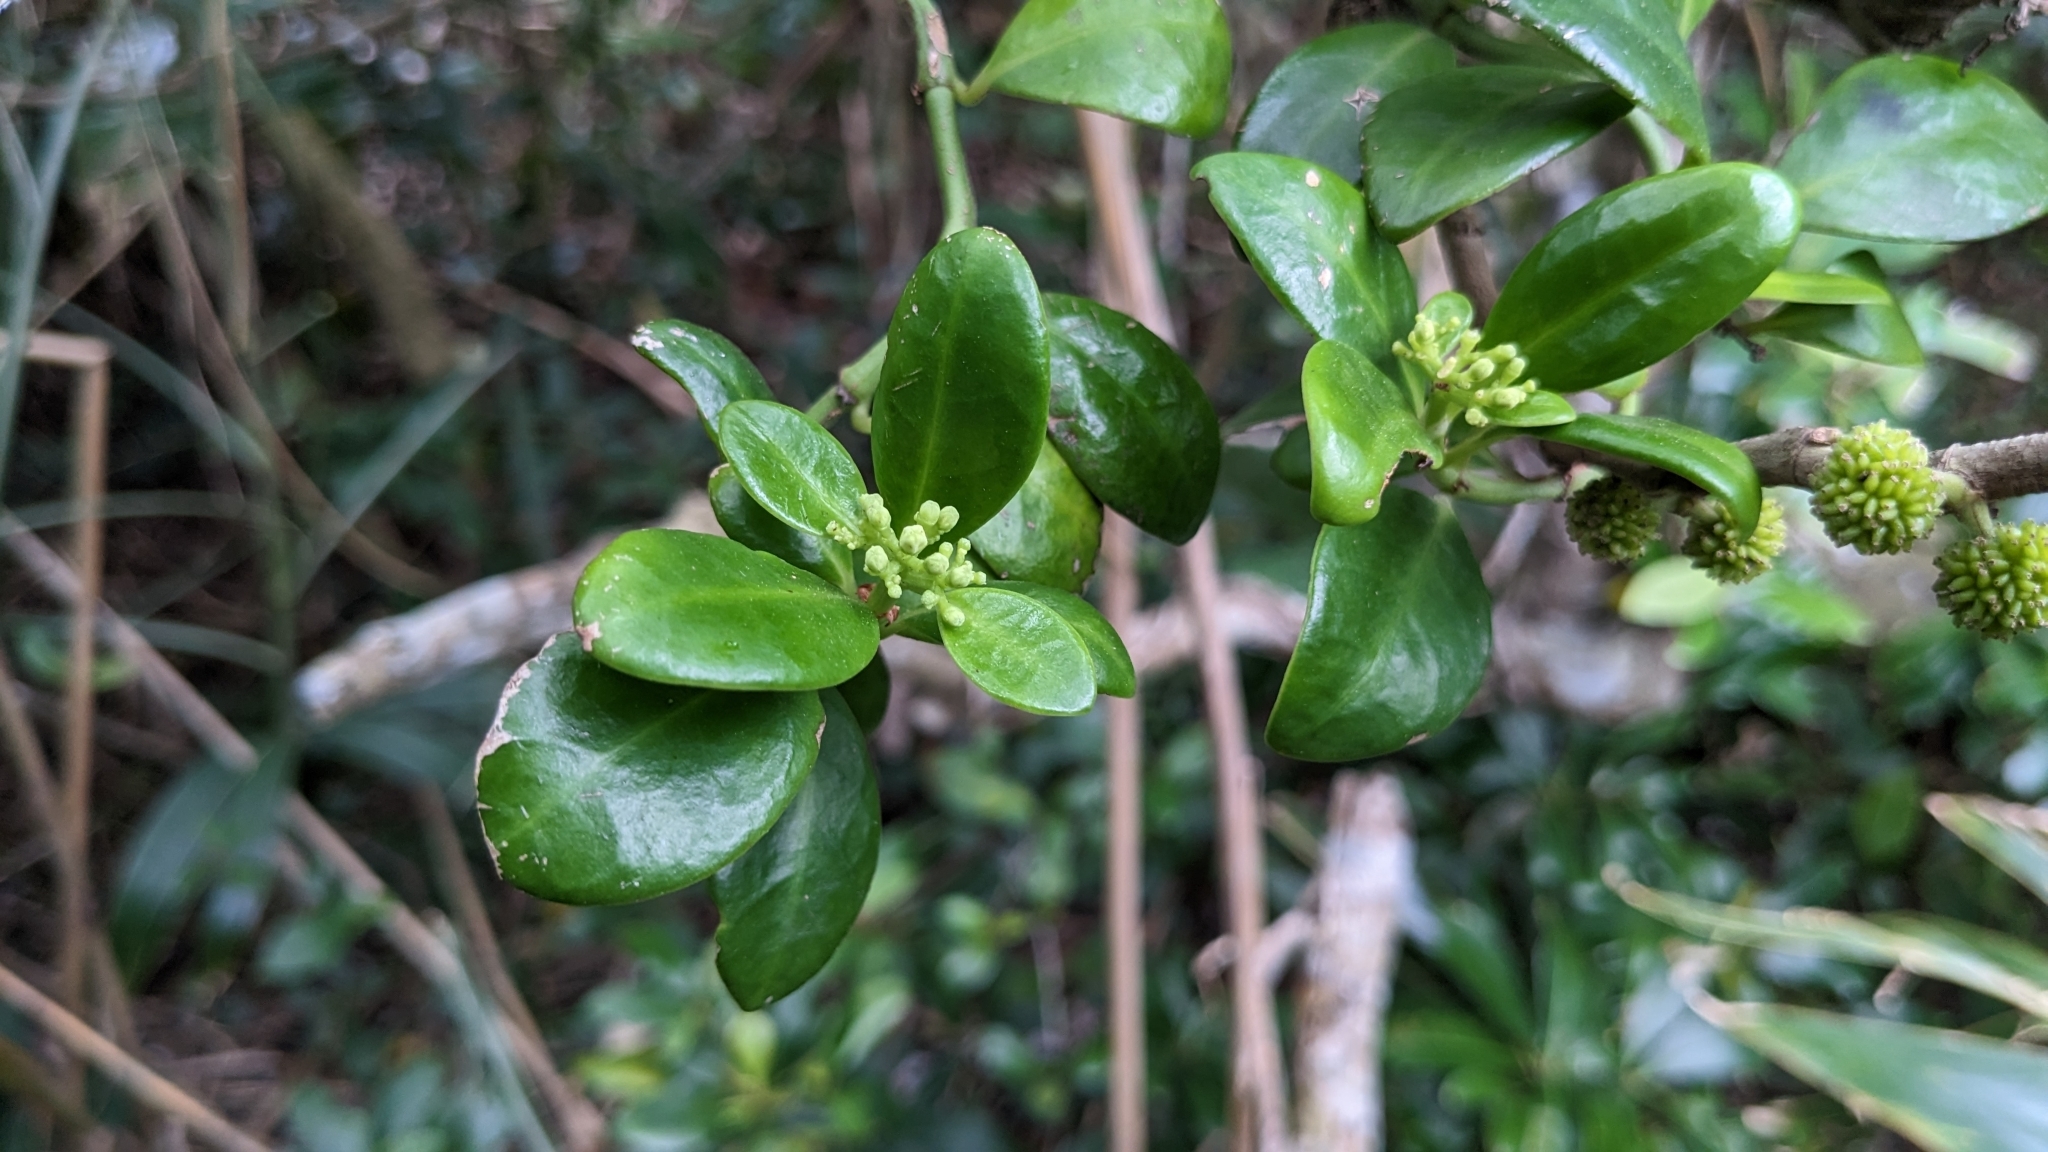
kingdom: Plantae
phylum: Tracheophyta
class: Magnoliopsida
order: Gentianales
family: Rubiaceae
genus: Psychotria
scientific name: Psychotria serpens
